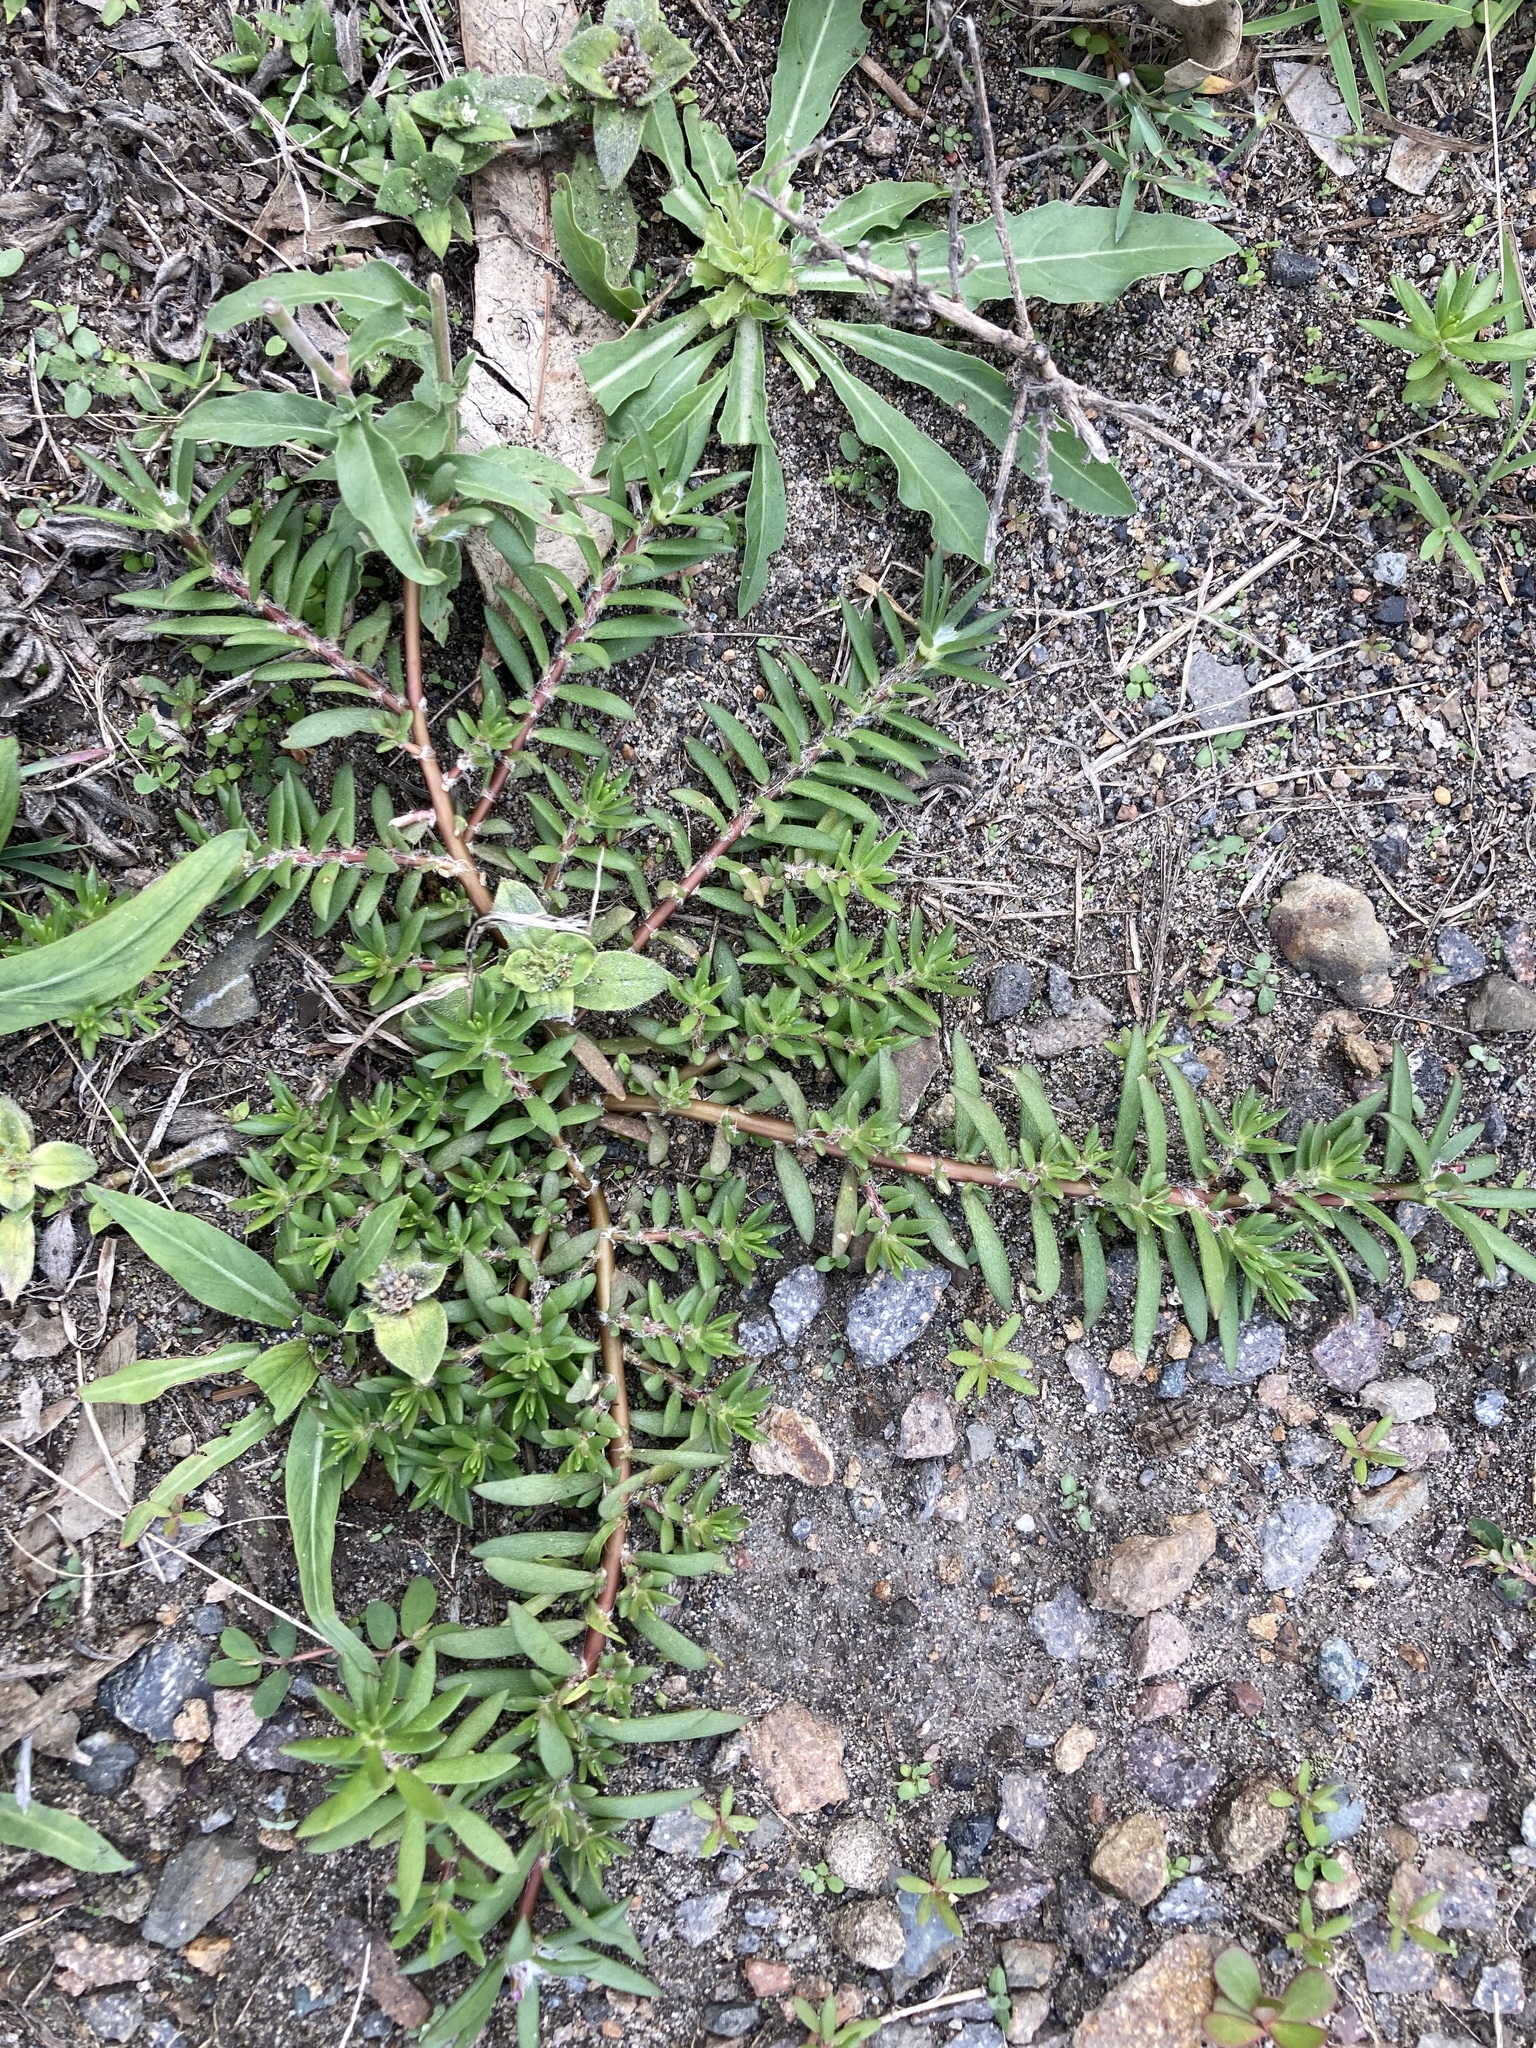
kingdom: Plantae
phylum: Tracheophyta
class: Magnoliopsida
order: Caryophyllales
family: Portulacaceae
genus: Portulaca
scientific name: Portulaca pilosa
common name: Kiss me quick
